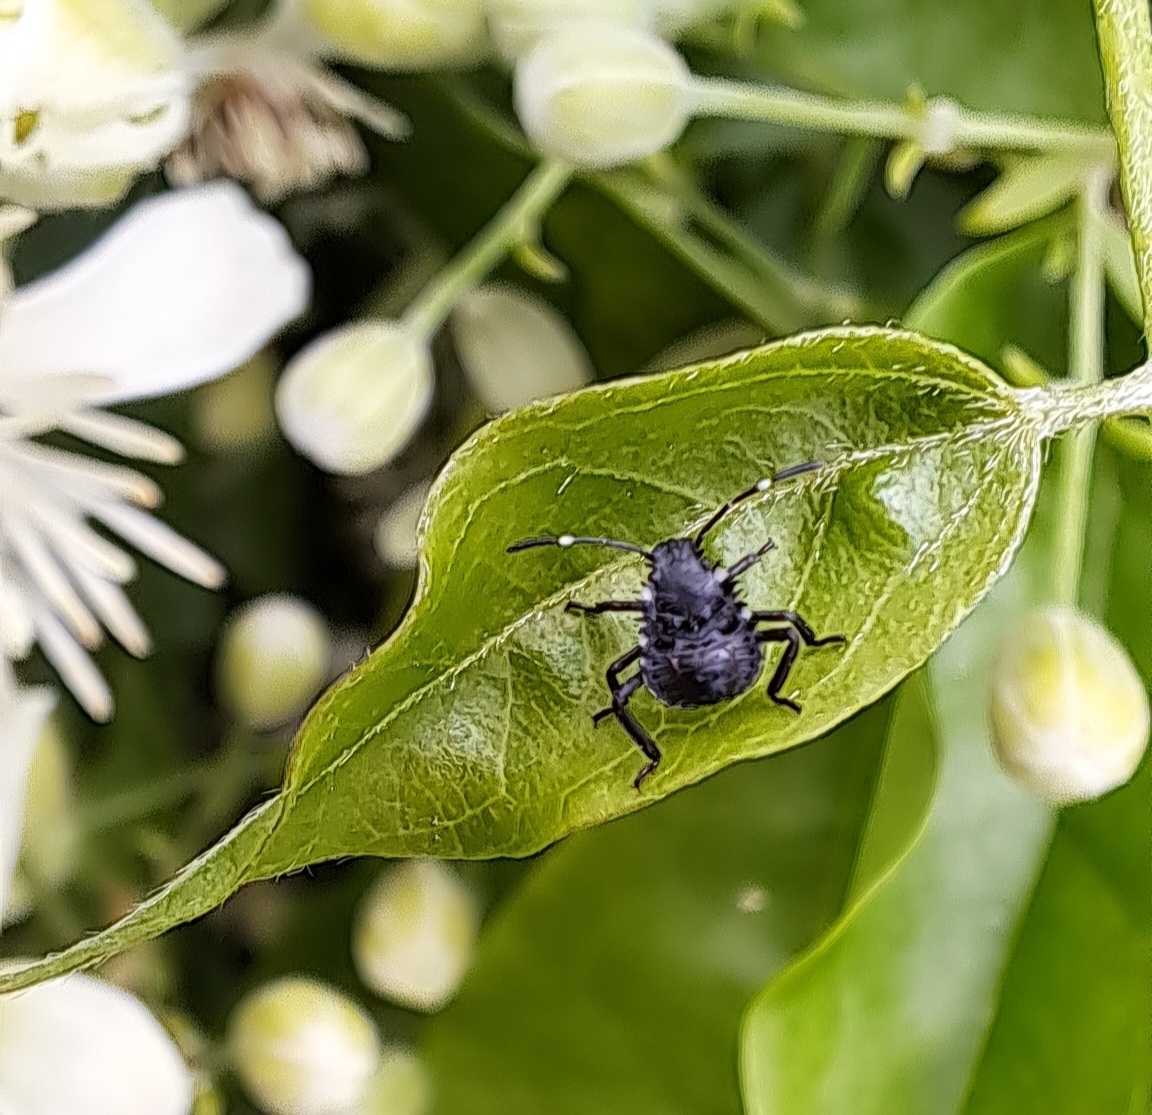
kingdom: Animalia
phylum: Arthropoda
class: Insecta
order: Hemiptera
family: Pentatomidae
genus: Halyomorpha
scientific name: Halyomorpha halys
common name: Brown marmorated stink bug
